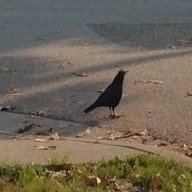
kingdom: Animalia
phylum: Chordata
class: Aves
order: Passeriformes
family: Corvidae
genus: Corvus
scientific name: Corvus brachyrhynchos
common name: American crow
